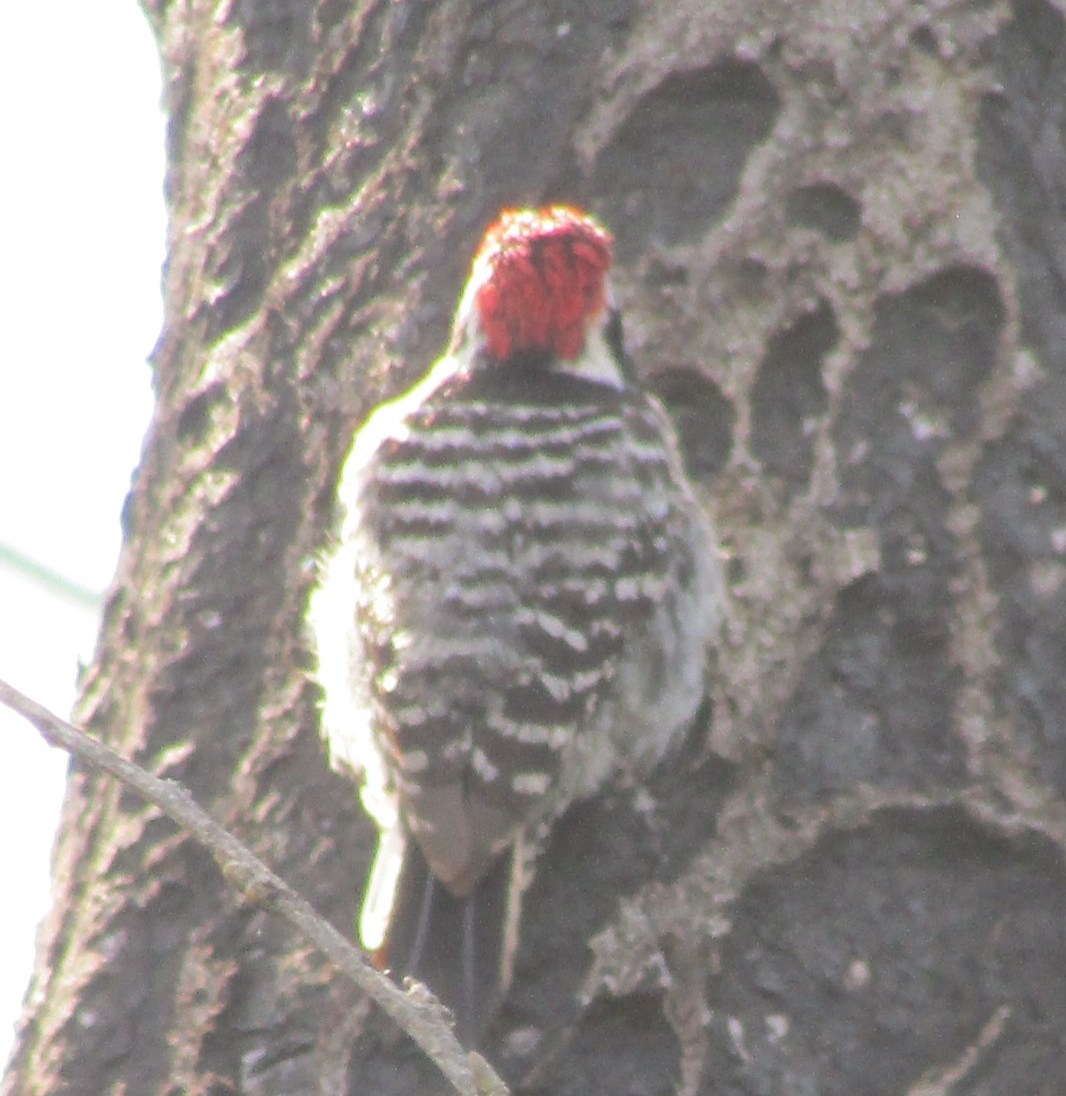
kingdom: Animalia
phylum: Chordata
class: Aves
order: Piciformes
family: Picidae
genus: Dryobates
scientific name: Dryobates nuttallii
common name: Nuttall's woodpecker
